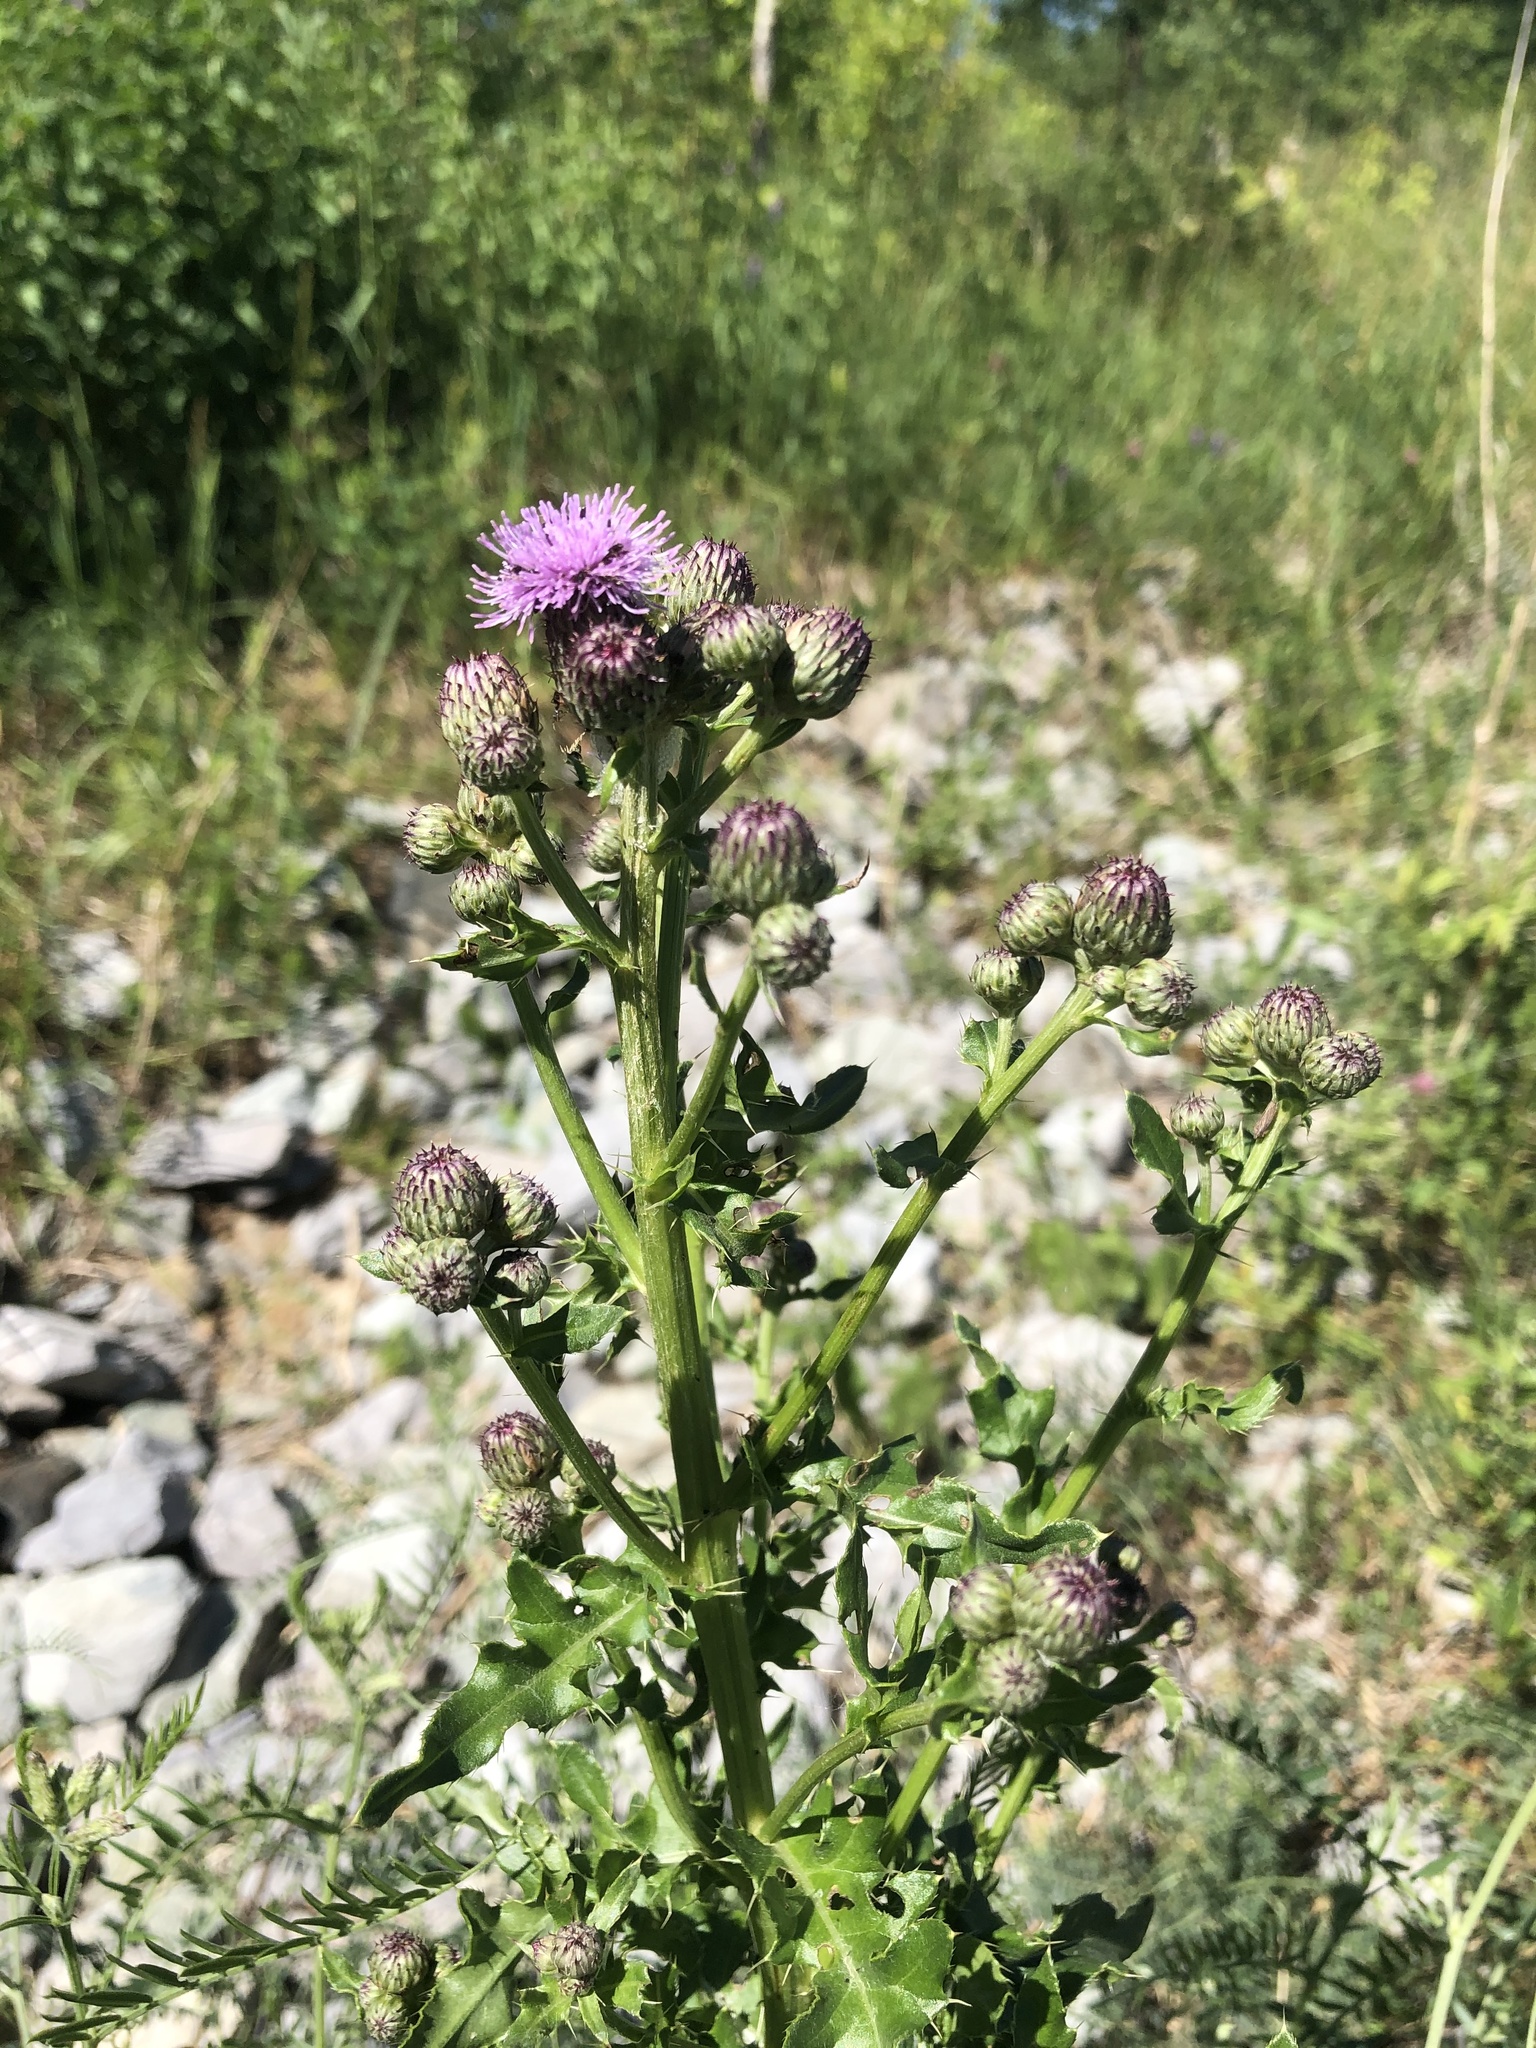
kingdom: Plantae
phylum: Tracheophyta
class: Magnoliopsida
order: Asterales
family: Asteraceae
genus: Cirsium
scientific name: Cirsium arvense
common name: Creeping thistle
